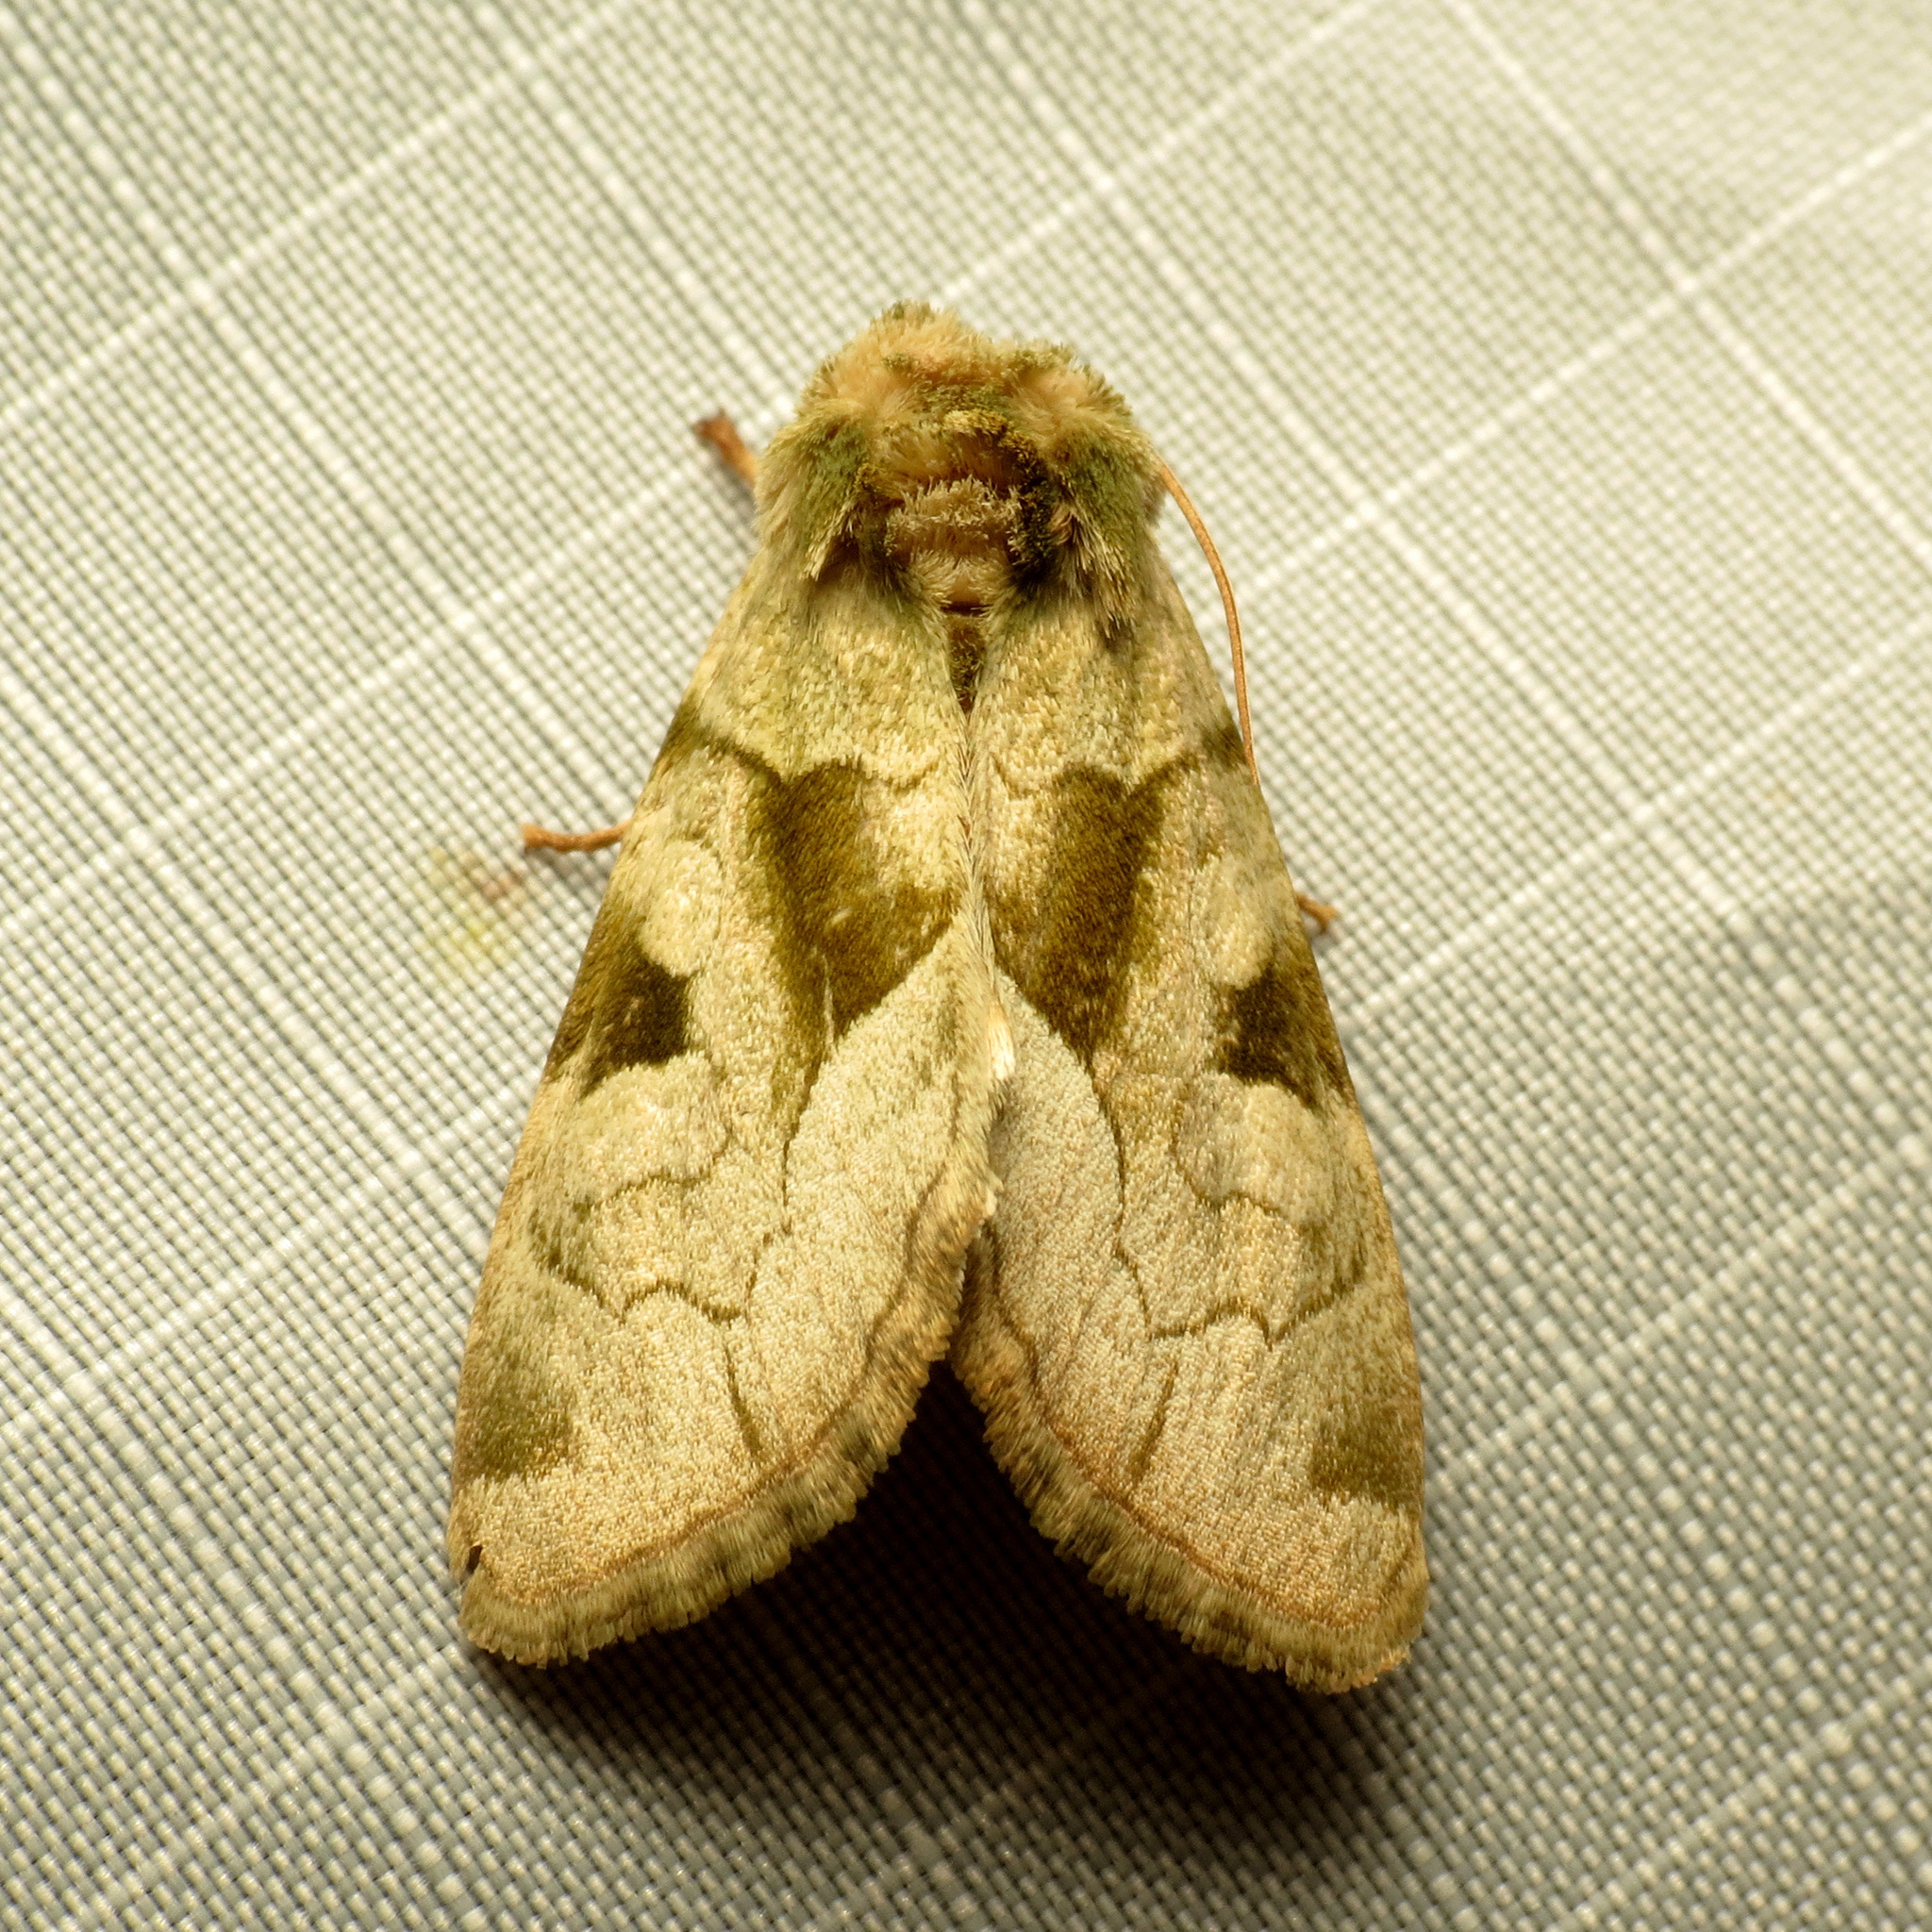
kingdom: Animalia
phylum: Arthropoda
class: Insecta
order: Lepidoptera
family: Noctuidae
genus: Oslaria
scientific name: Oslaria viridifera
